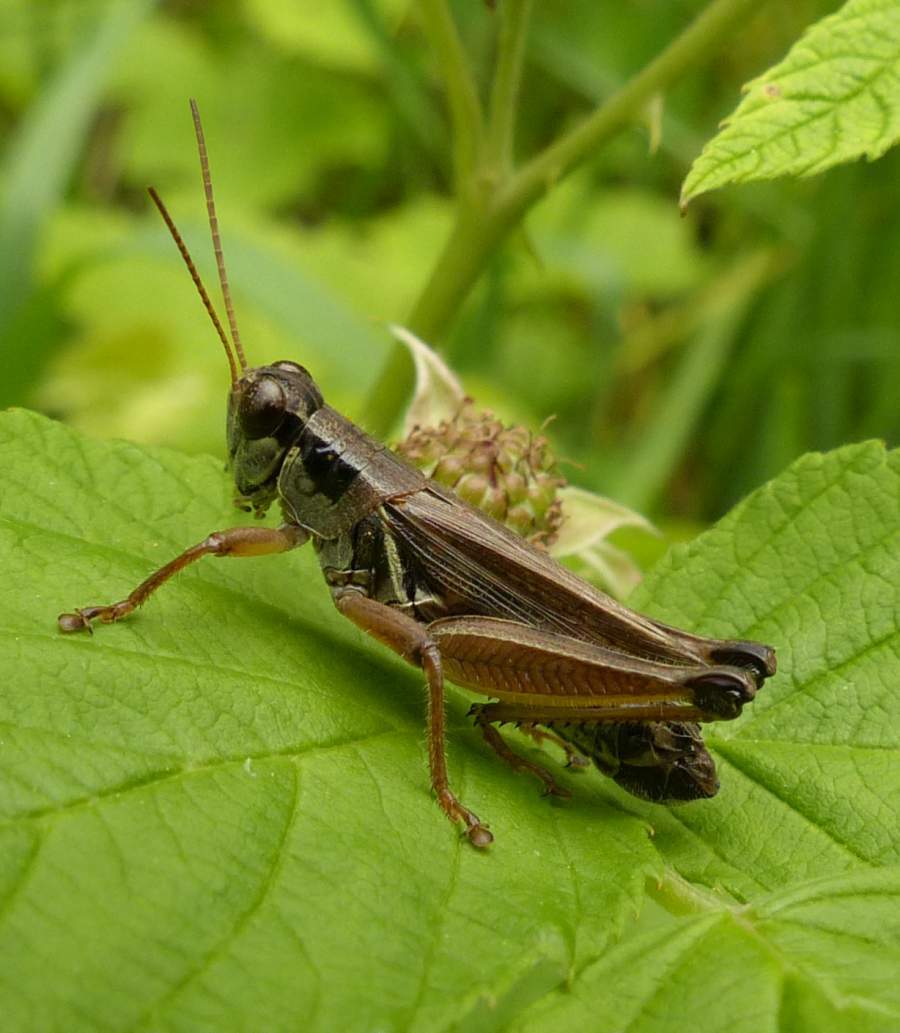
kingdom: Animalia
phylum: Arthropoda
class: Insecta
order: Orthoptera
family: Acrididae
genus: Melanoplus
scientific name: Melanoplus borealis
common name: Northern grasshopper
